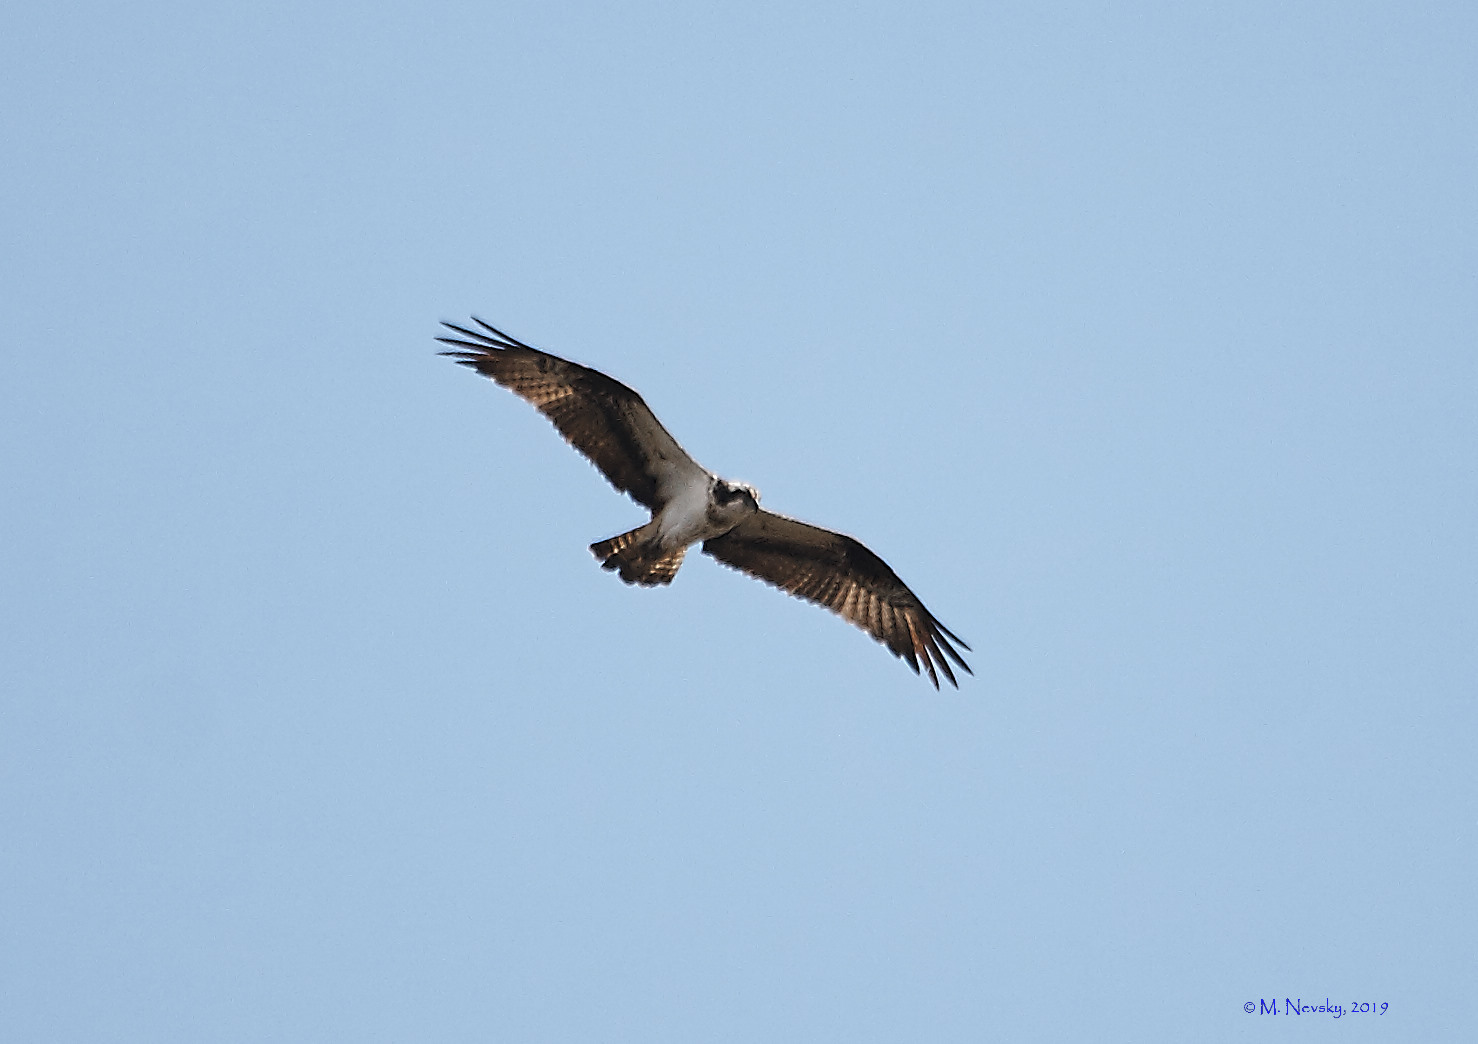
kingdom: Animalia
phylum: Chordata
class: Aves
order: Accipitriformes
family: Pandionidae
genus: Pandion
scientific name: Pandion haliaetus
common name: Osprey
